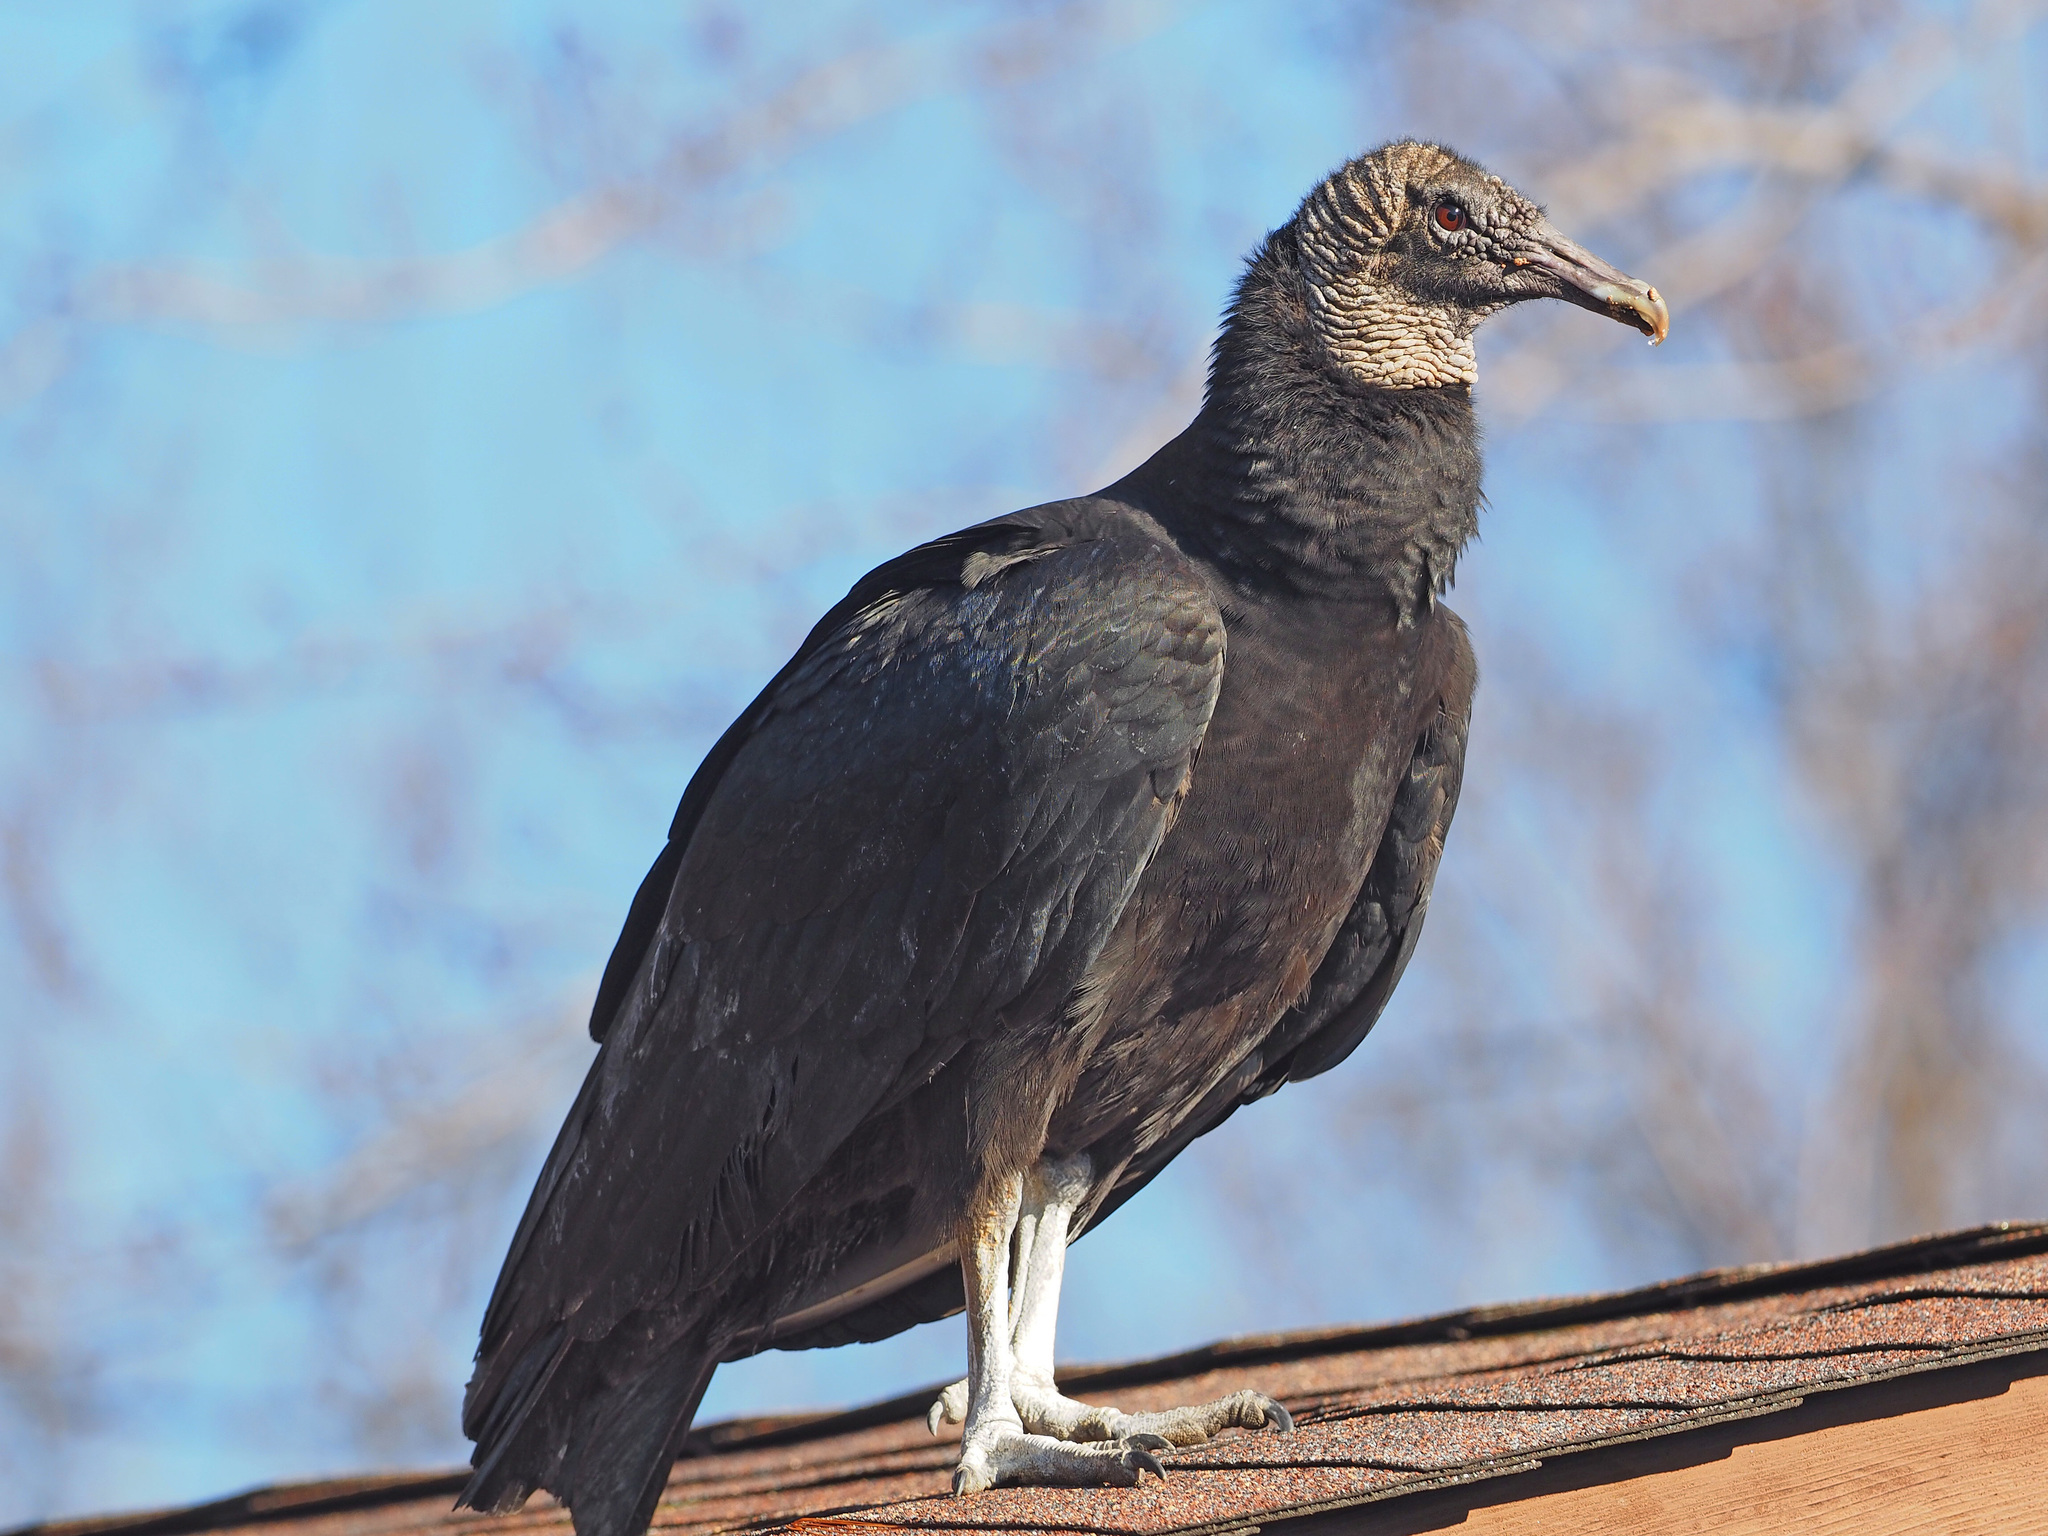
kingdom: Animalia
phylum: Chordata
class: Aves
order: Accipitriformes
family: Cathartidae
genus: Coragyps
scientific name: Coragyps atratus
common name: Black vulture
